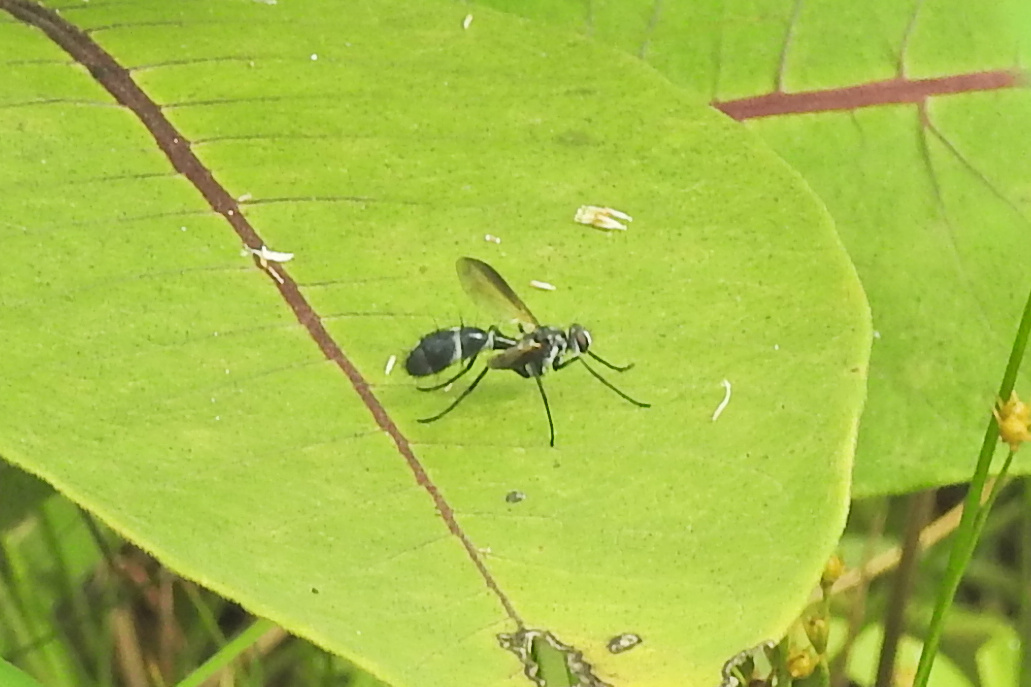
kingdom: Animalia
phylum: Arthropoda
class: Insecta
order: Diptera
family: Tachinidae
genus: Cordyligaster
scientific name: Cordyligaster septentrionalis
